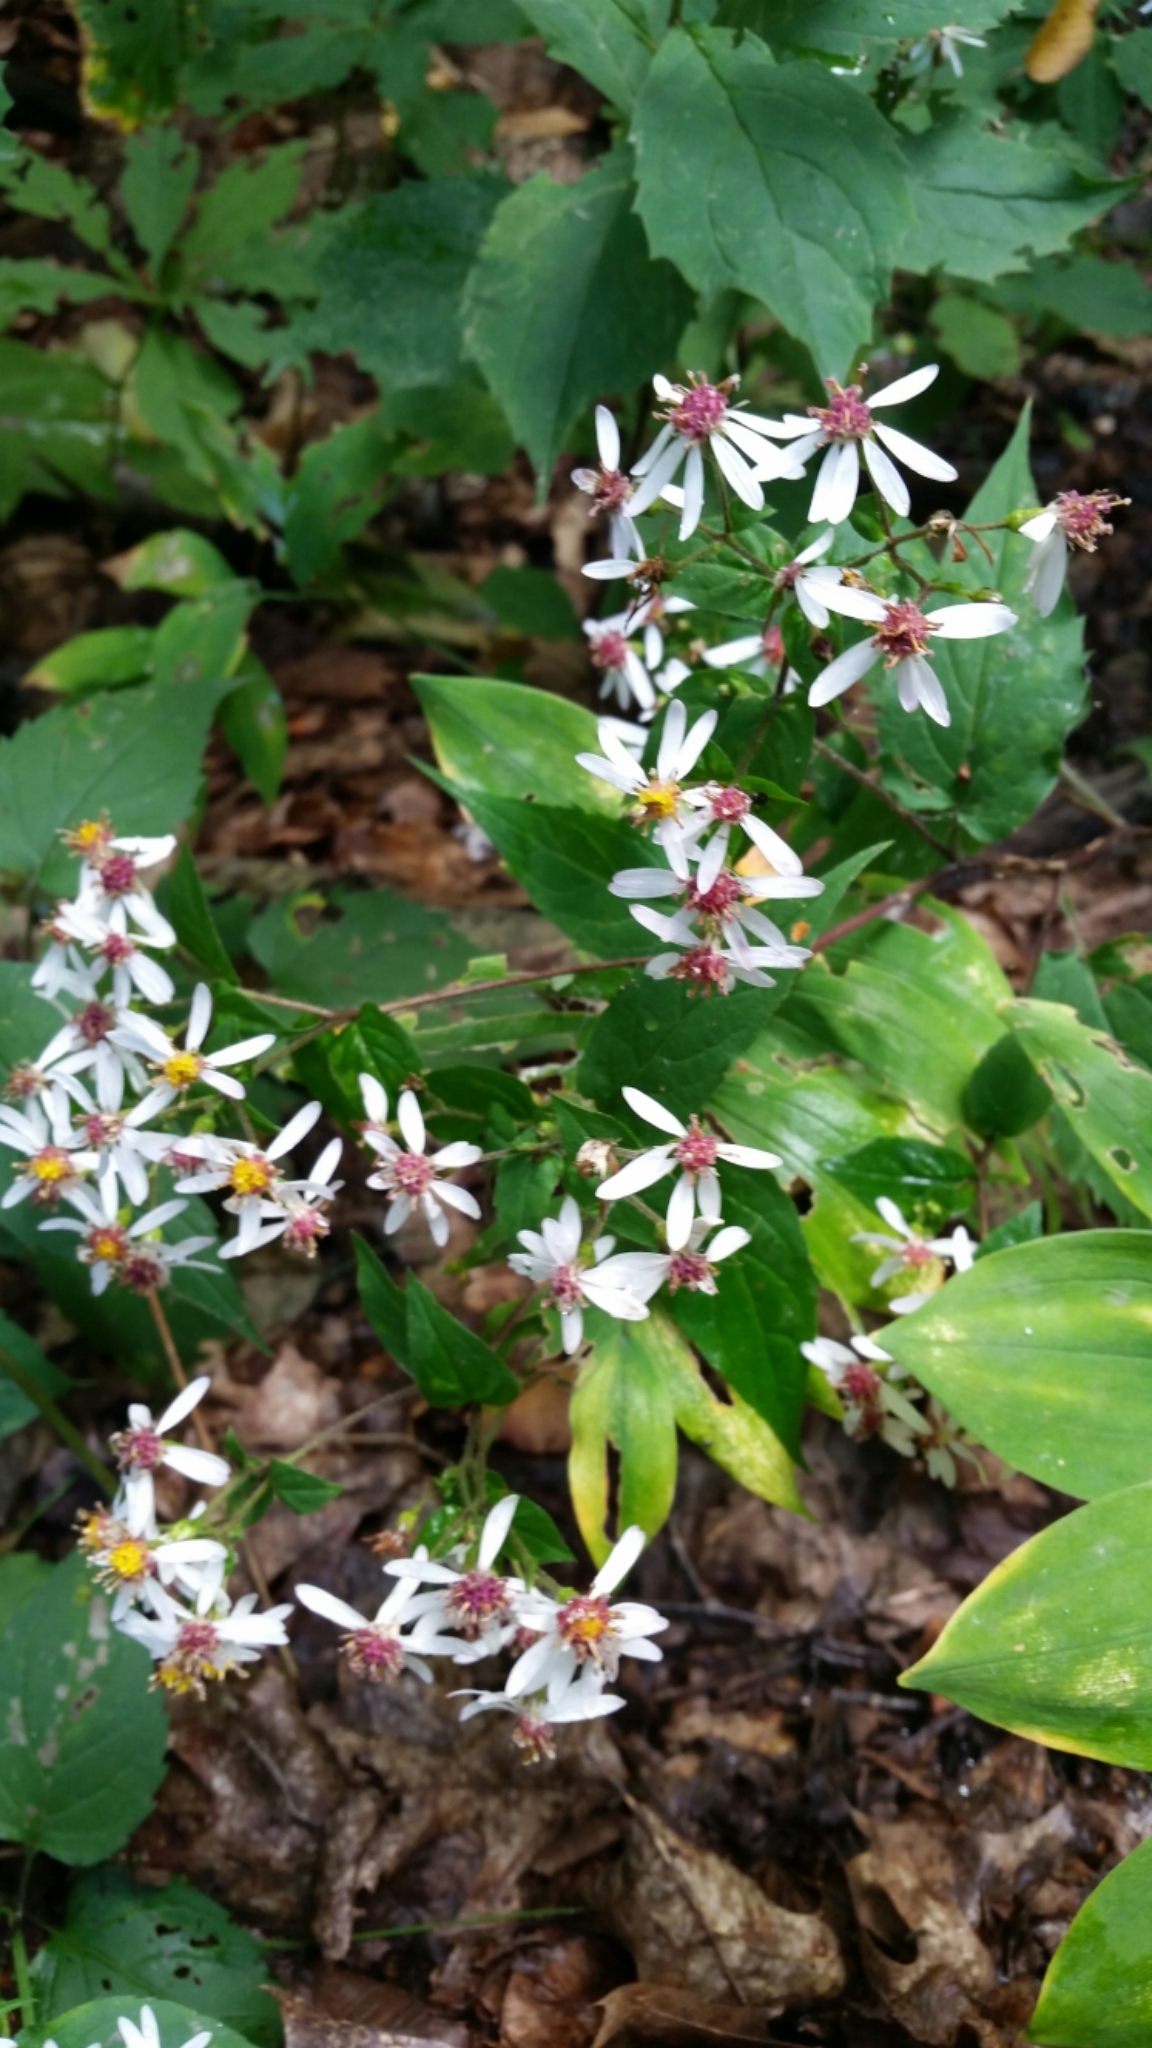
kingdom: Plantae
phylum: Tracheophyta
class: Magnoliopsida
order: Asterales
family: Asteraceae
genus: Eurybia
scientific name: Eurybia divaricata
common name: White wood aster
